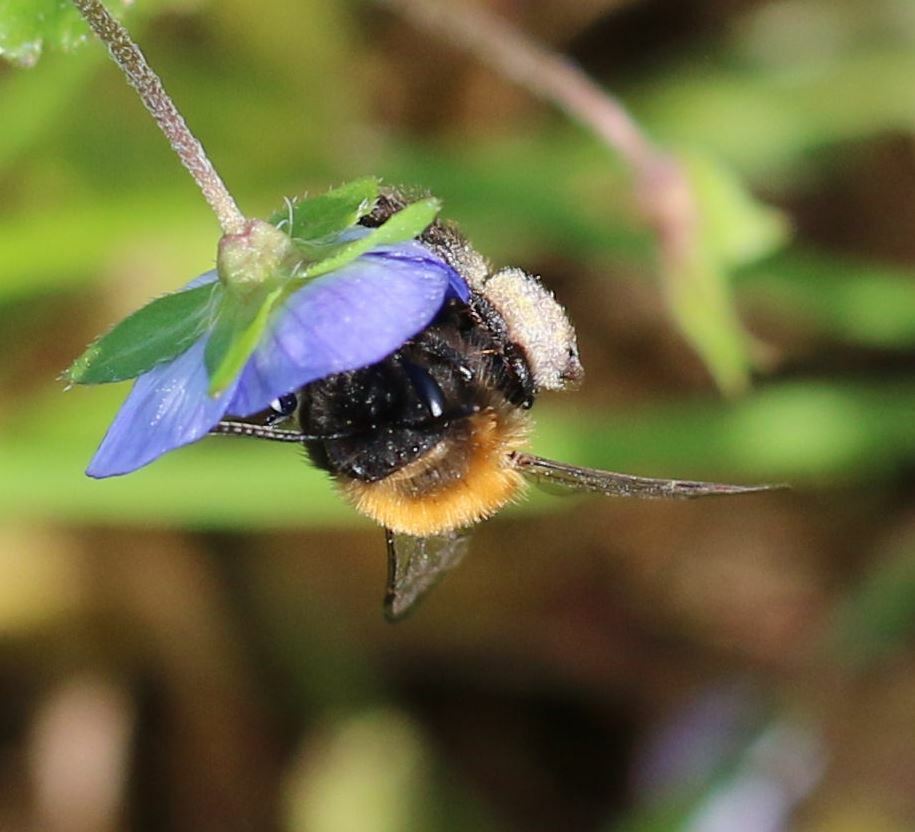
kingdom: Animalia
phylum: Arthropoda
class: Insecta
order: Hymenoptera
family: Andrenidae
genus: Andrena
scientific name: Andrena bicolor
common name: Gwynne's mining bee
